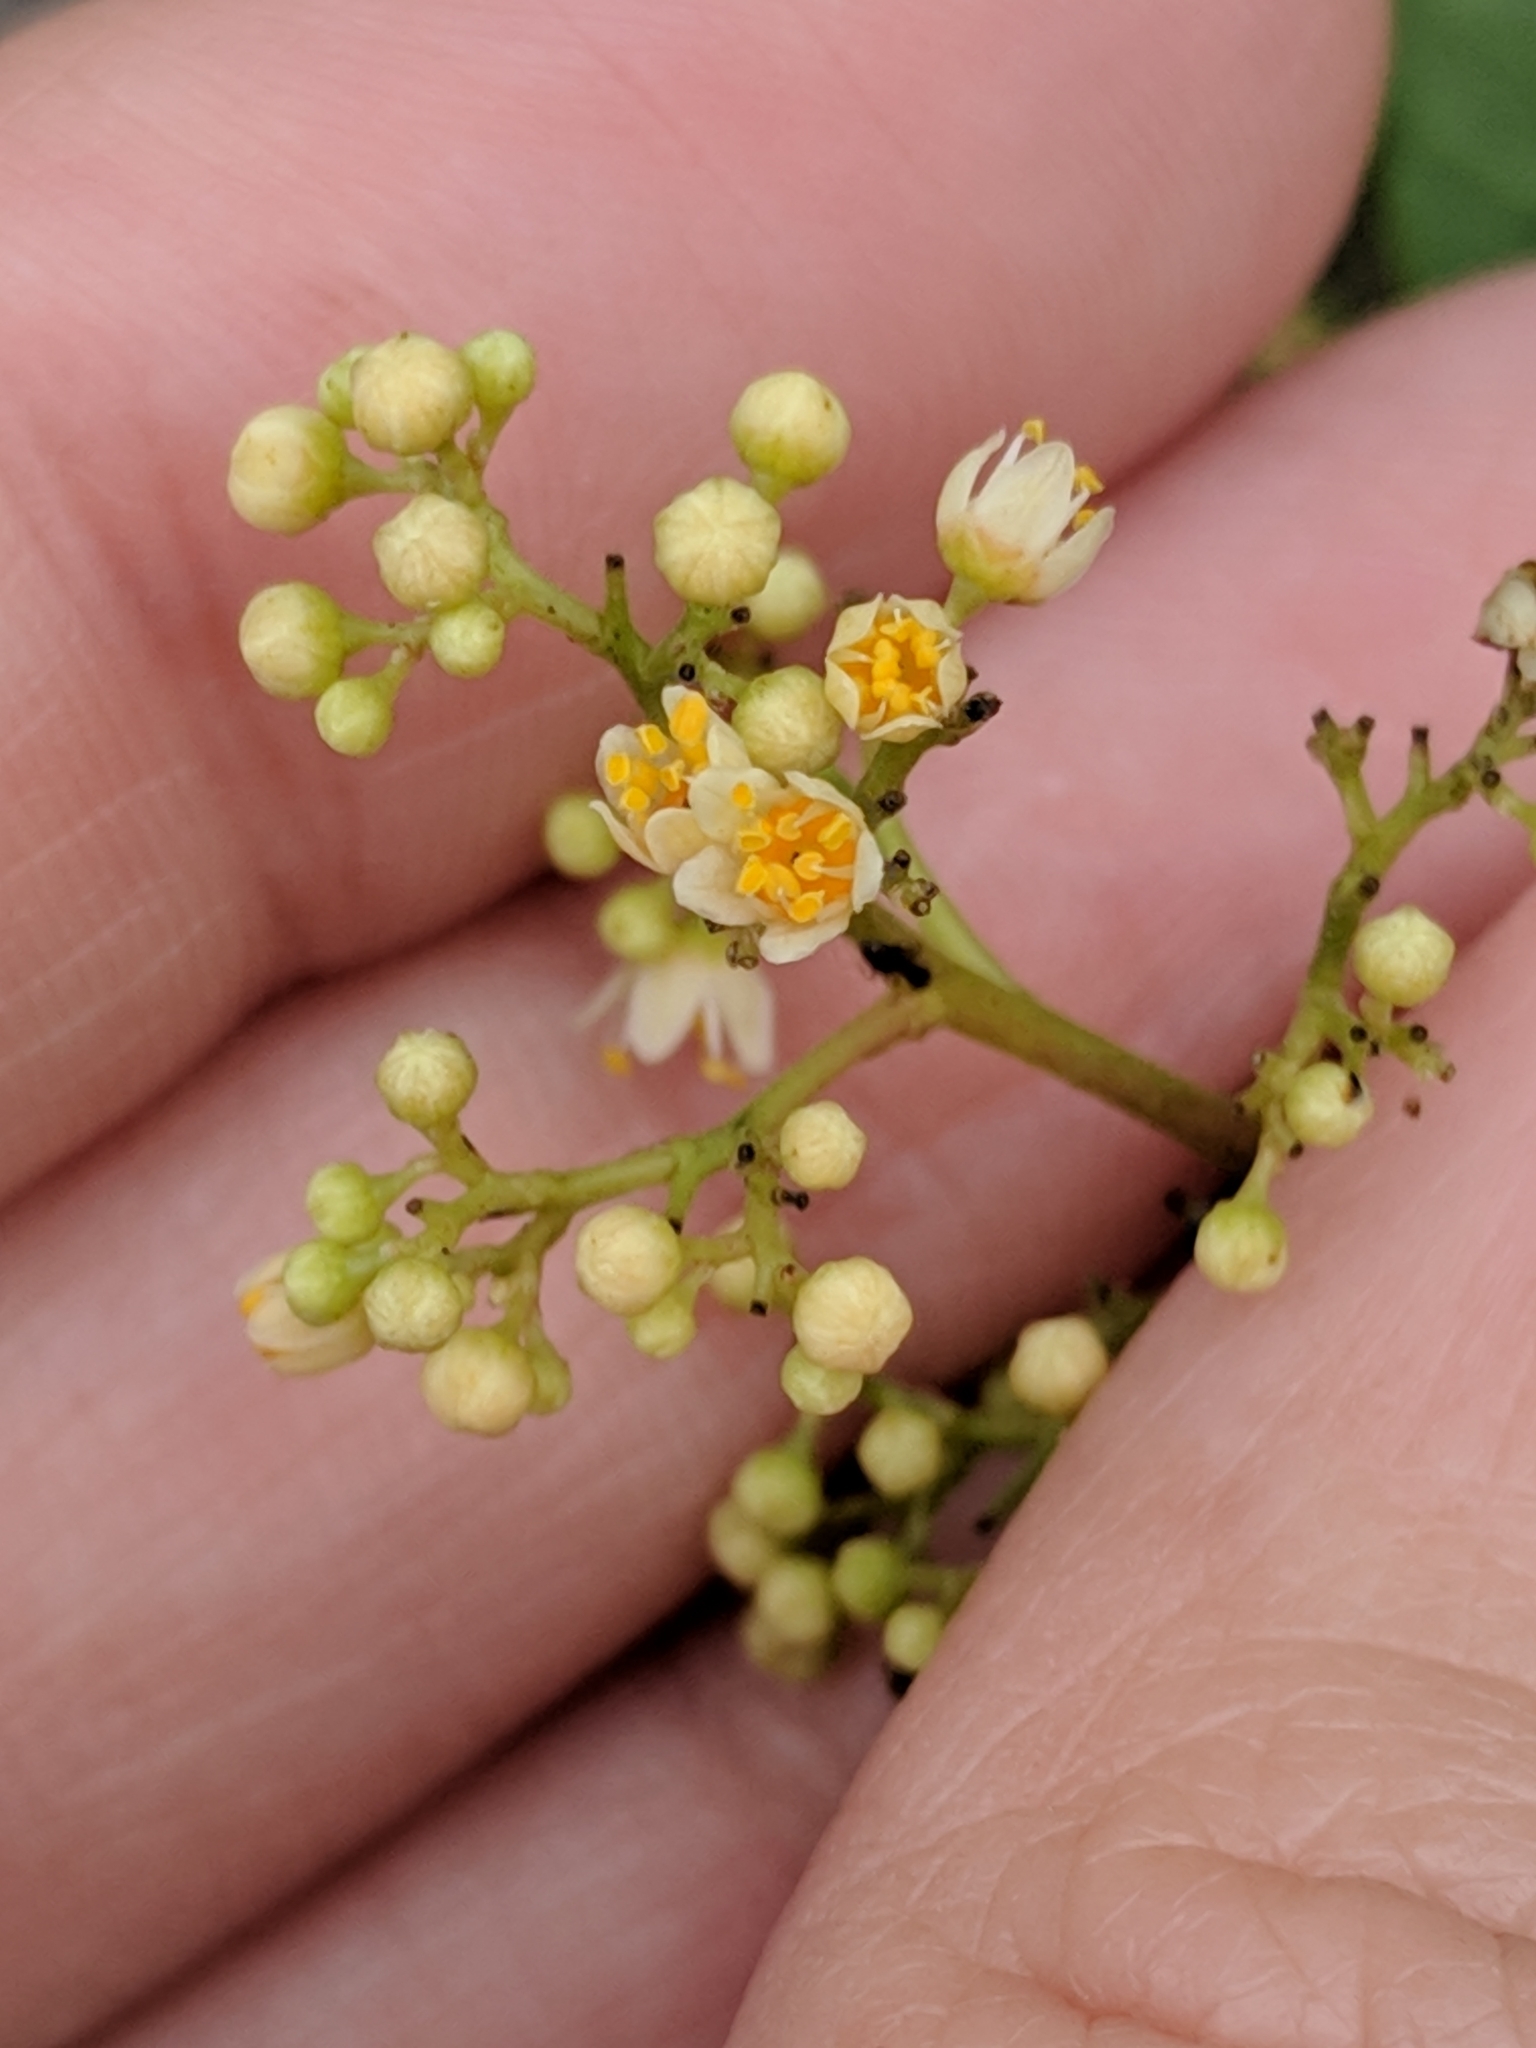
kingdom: Plantae
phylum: Tracheophyta
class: Magnoliopsida
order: Sapindales
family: Anacardiaceae
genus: Schinus
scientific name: Schinus terebinthifolia
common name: Brazilian peppertree
